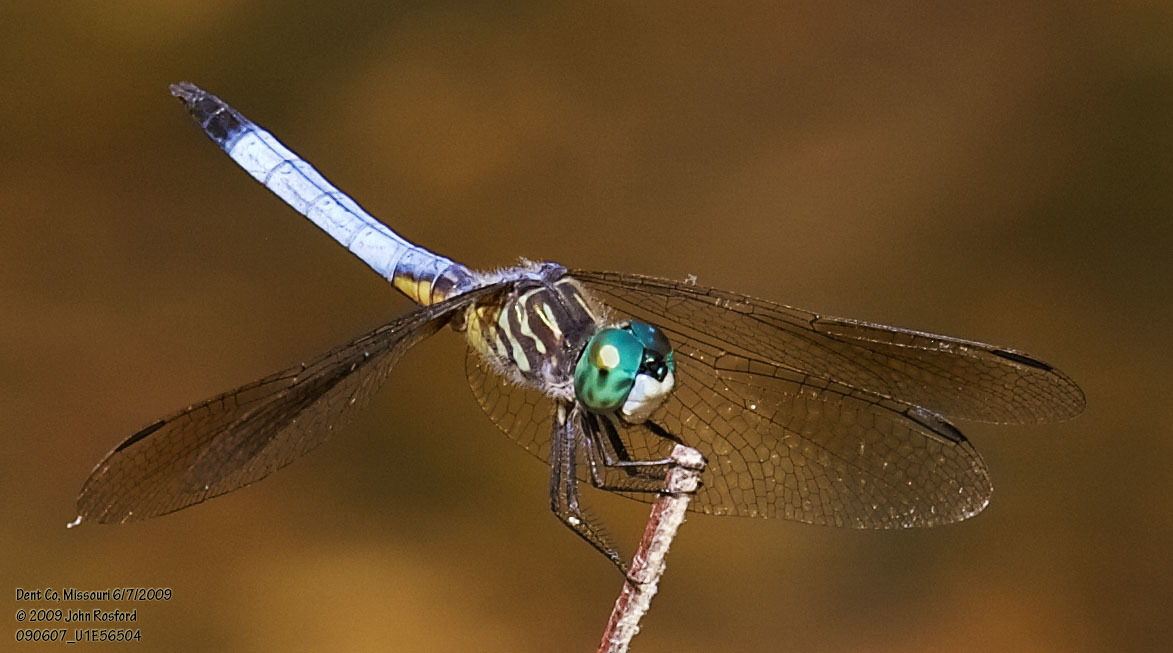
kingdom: Animalia
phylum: Arthropoda
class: Insecta
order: Odonata
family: Libellulidae
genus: Pachydiplax
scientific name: Pachydiplax longipennis
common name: Blue dasher
